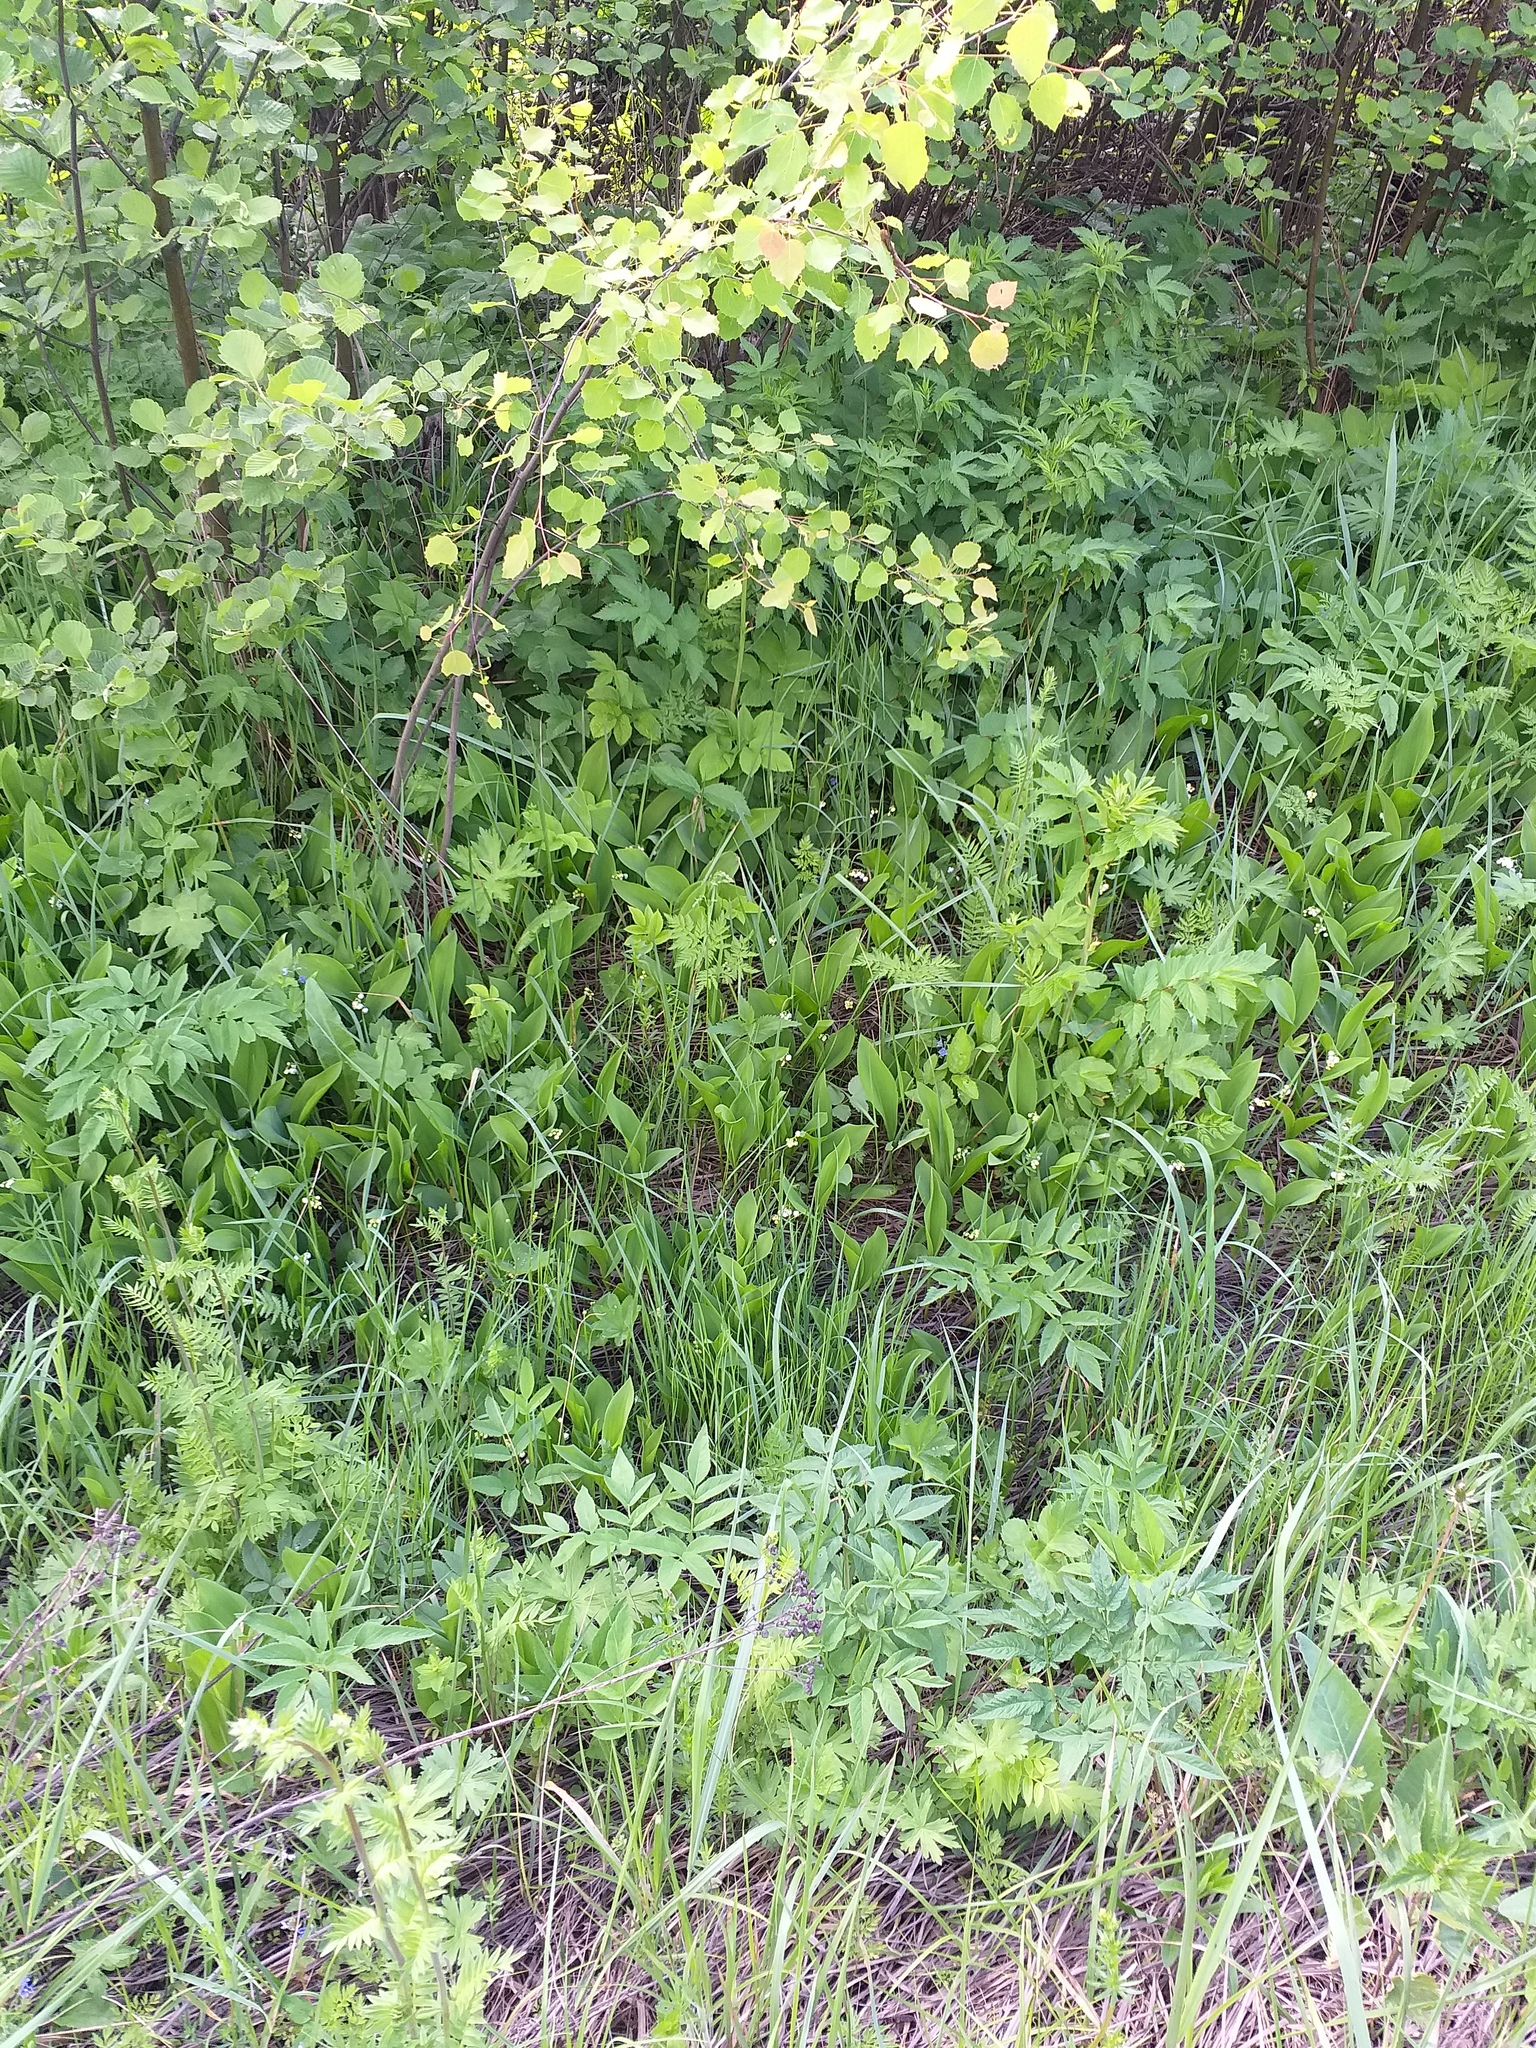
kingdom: Plantae
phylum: Tracheophyta
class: Liliopsida
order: Asparagales
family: Asparagaceae
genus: Convallaria
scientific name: Convallaria majalis
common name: Lily-of-the-valley
